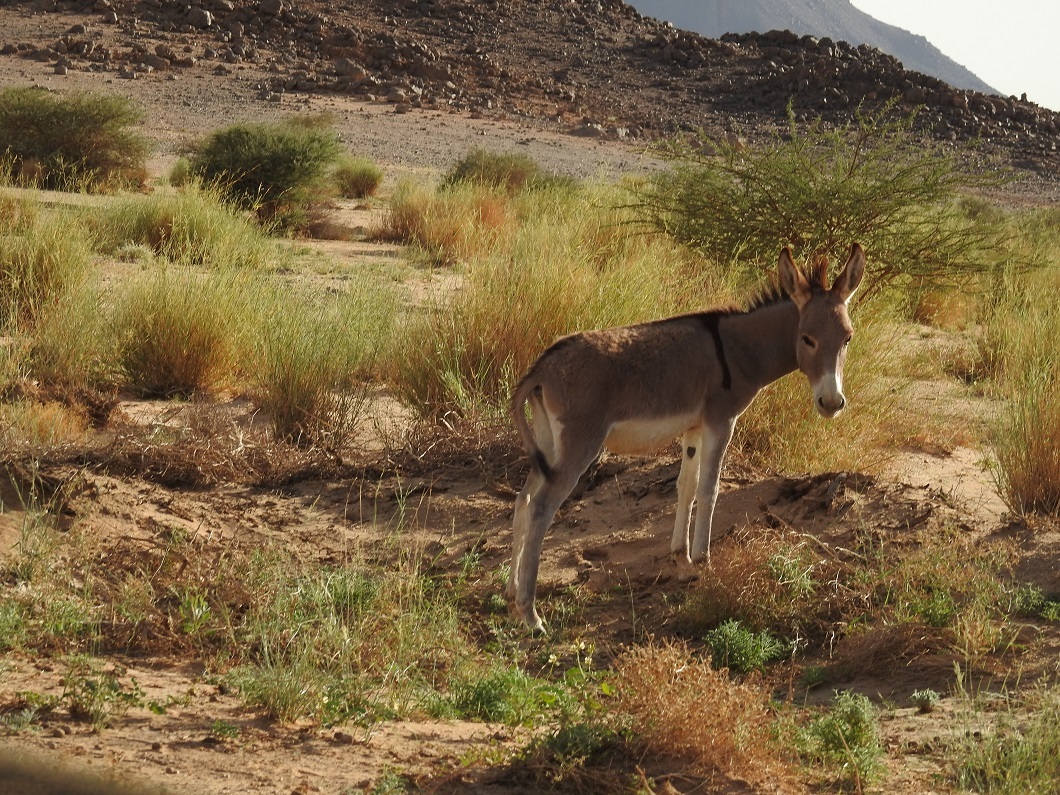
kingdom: Animalia
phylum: Chordata
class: Mammalia
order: Perissodactyla
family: Equidae
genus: Equus
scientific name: Equus asinus
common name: Ass
